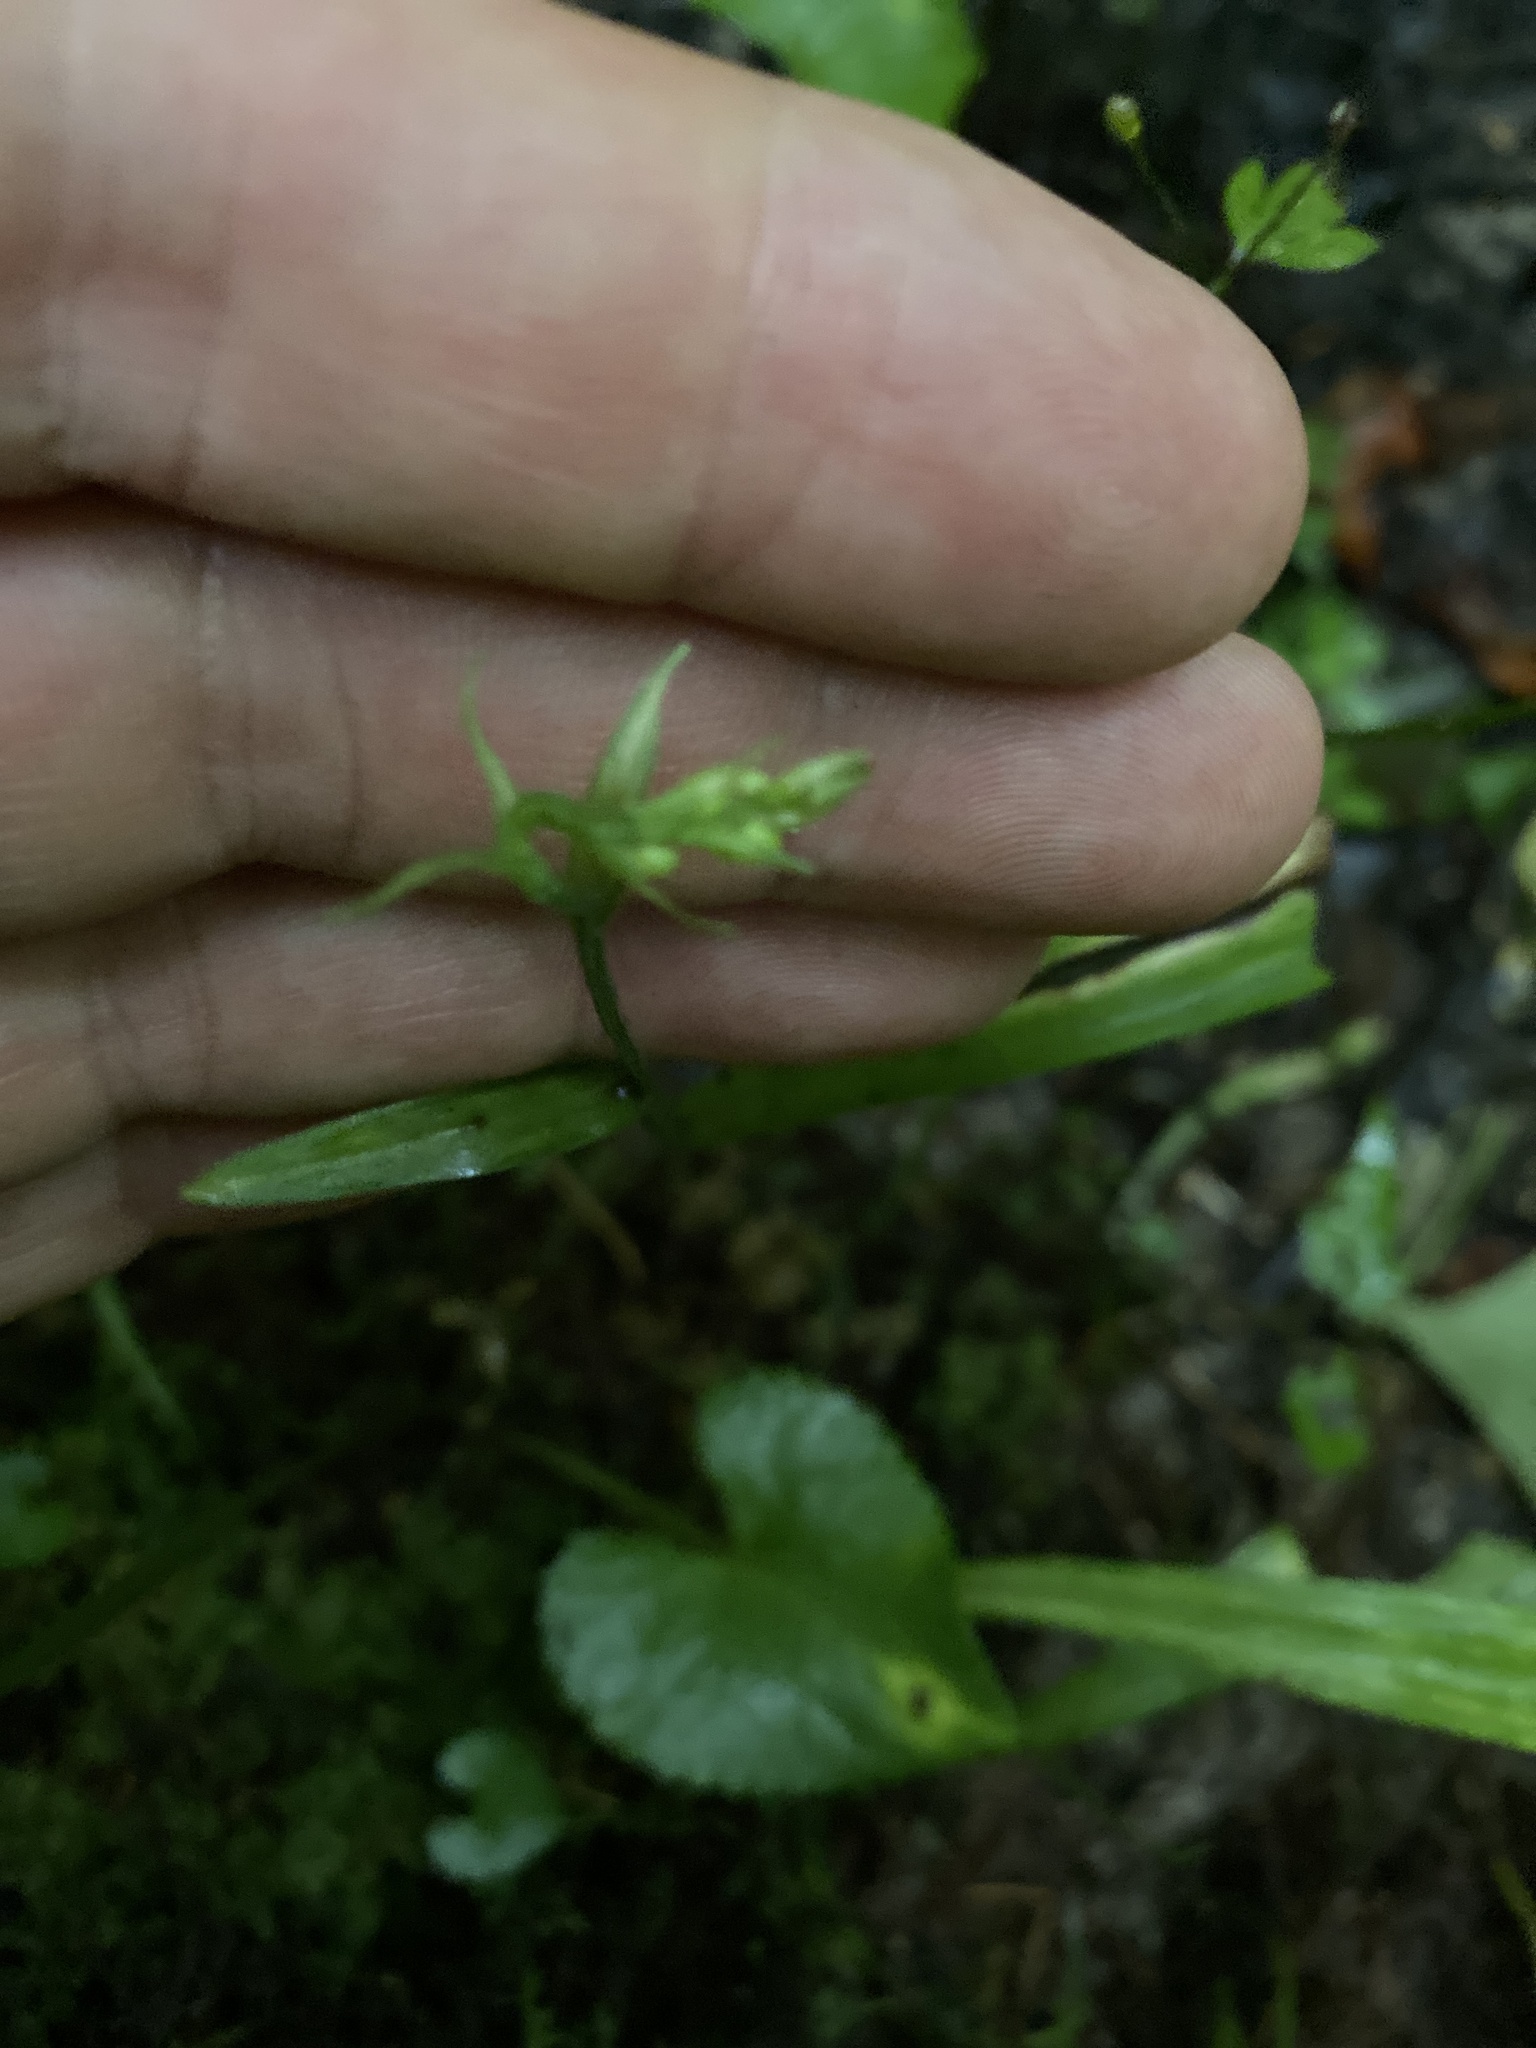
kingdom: Plantae
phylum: Tracheophyta
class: Liliopsida
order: Asparagales
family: Orchidaceae
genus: Platanthera
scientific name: Platanthera clavellata
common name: Club-spur orchid
